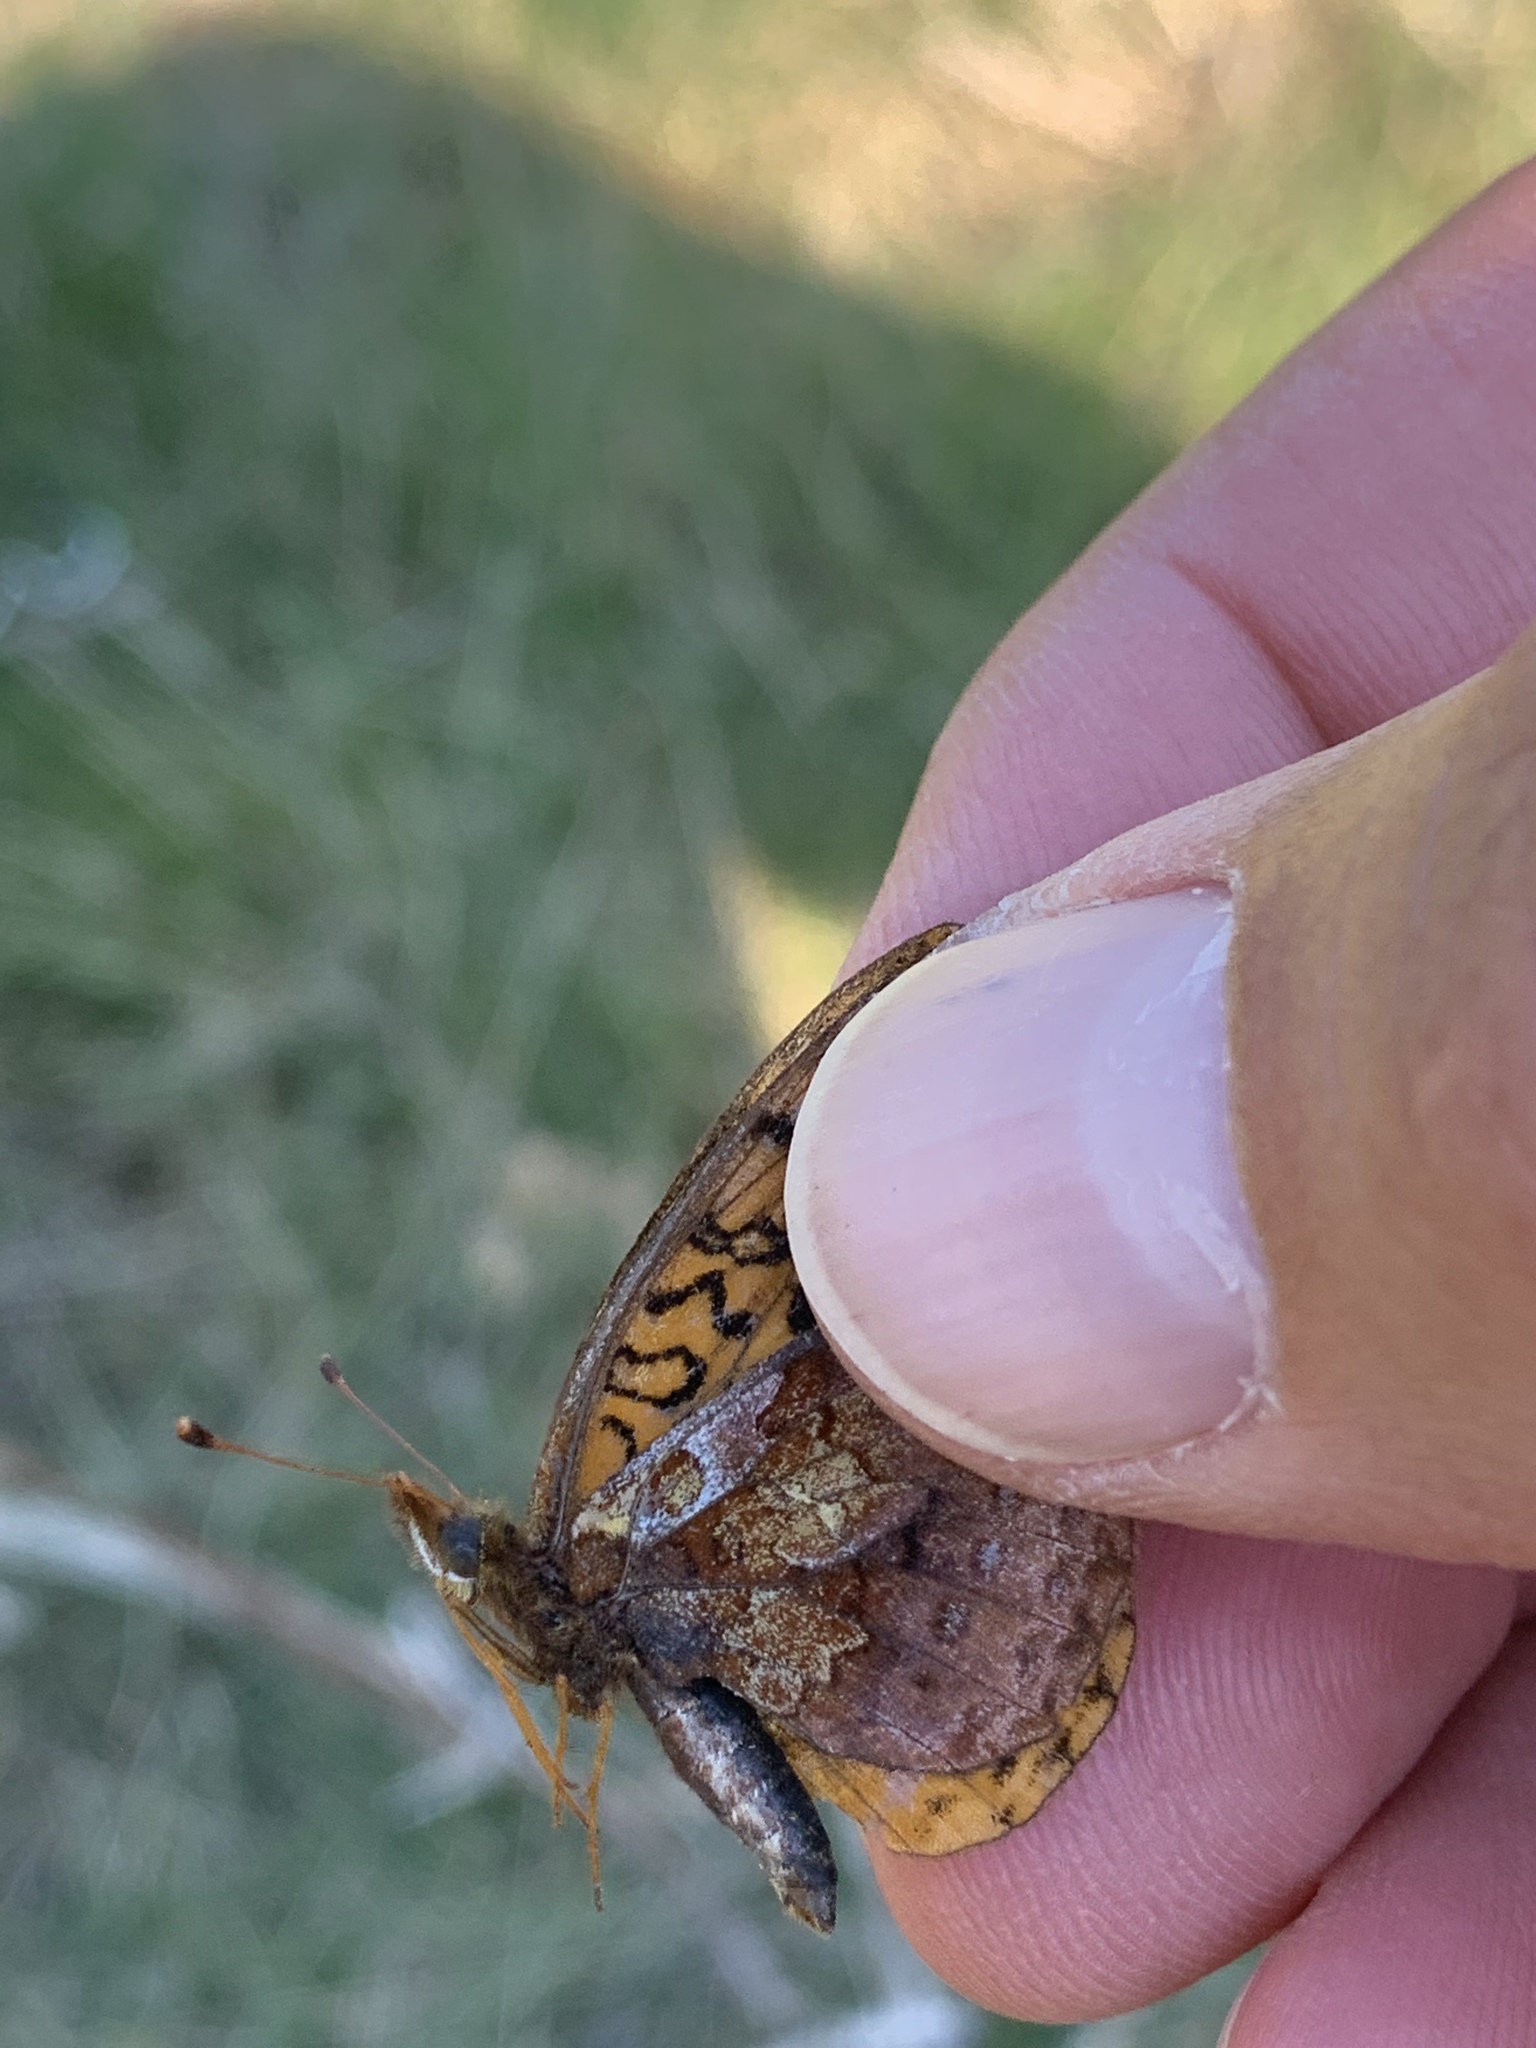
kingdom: Animalia
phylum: Arthropoda
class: Insecta
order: Lepidoptera
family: Nymphalidae
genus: Clossiana
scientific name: Clossiana toddi
